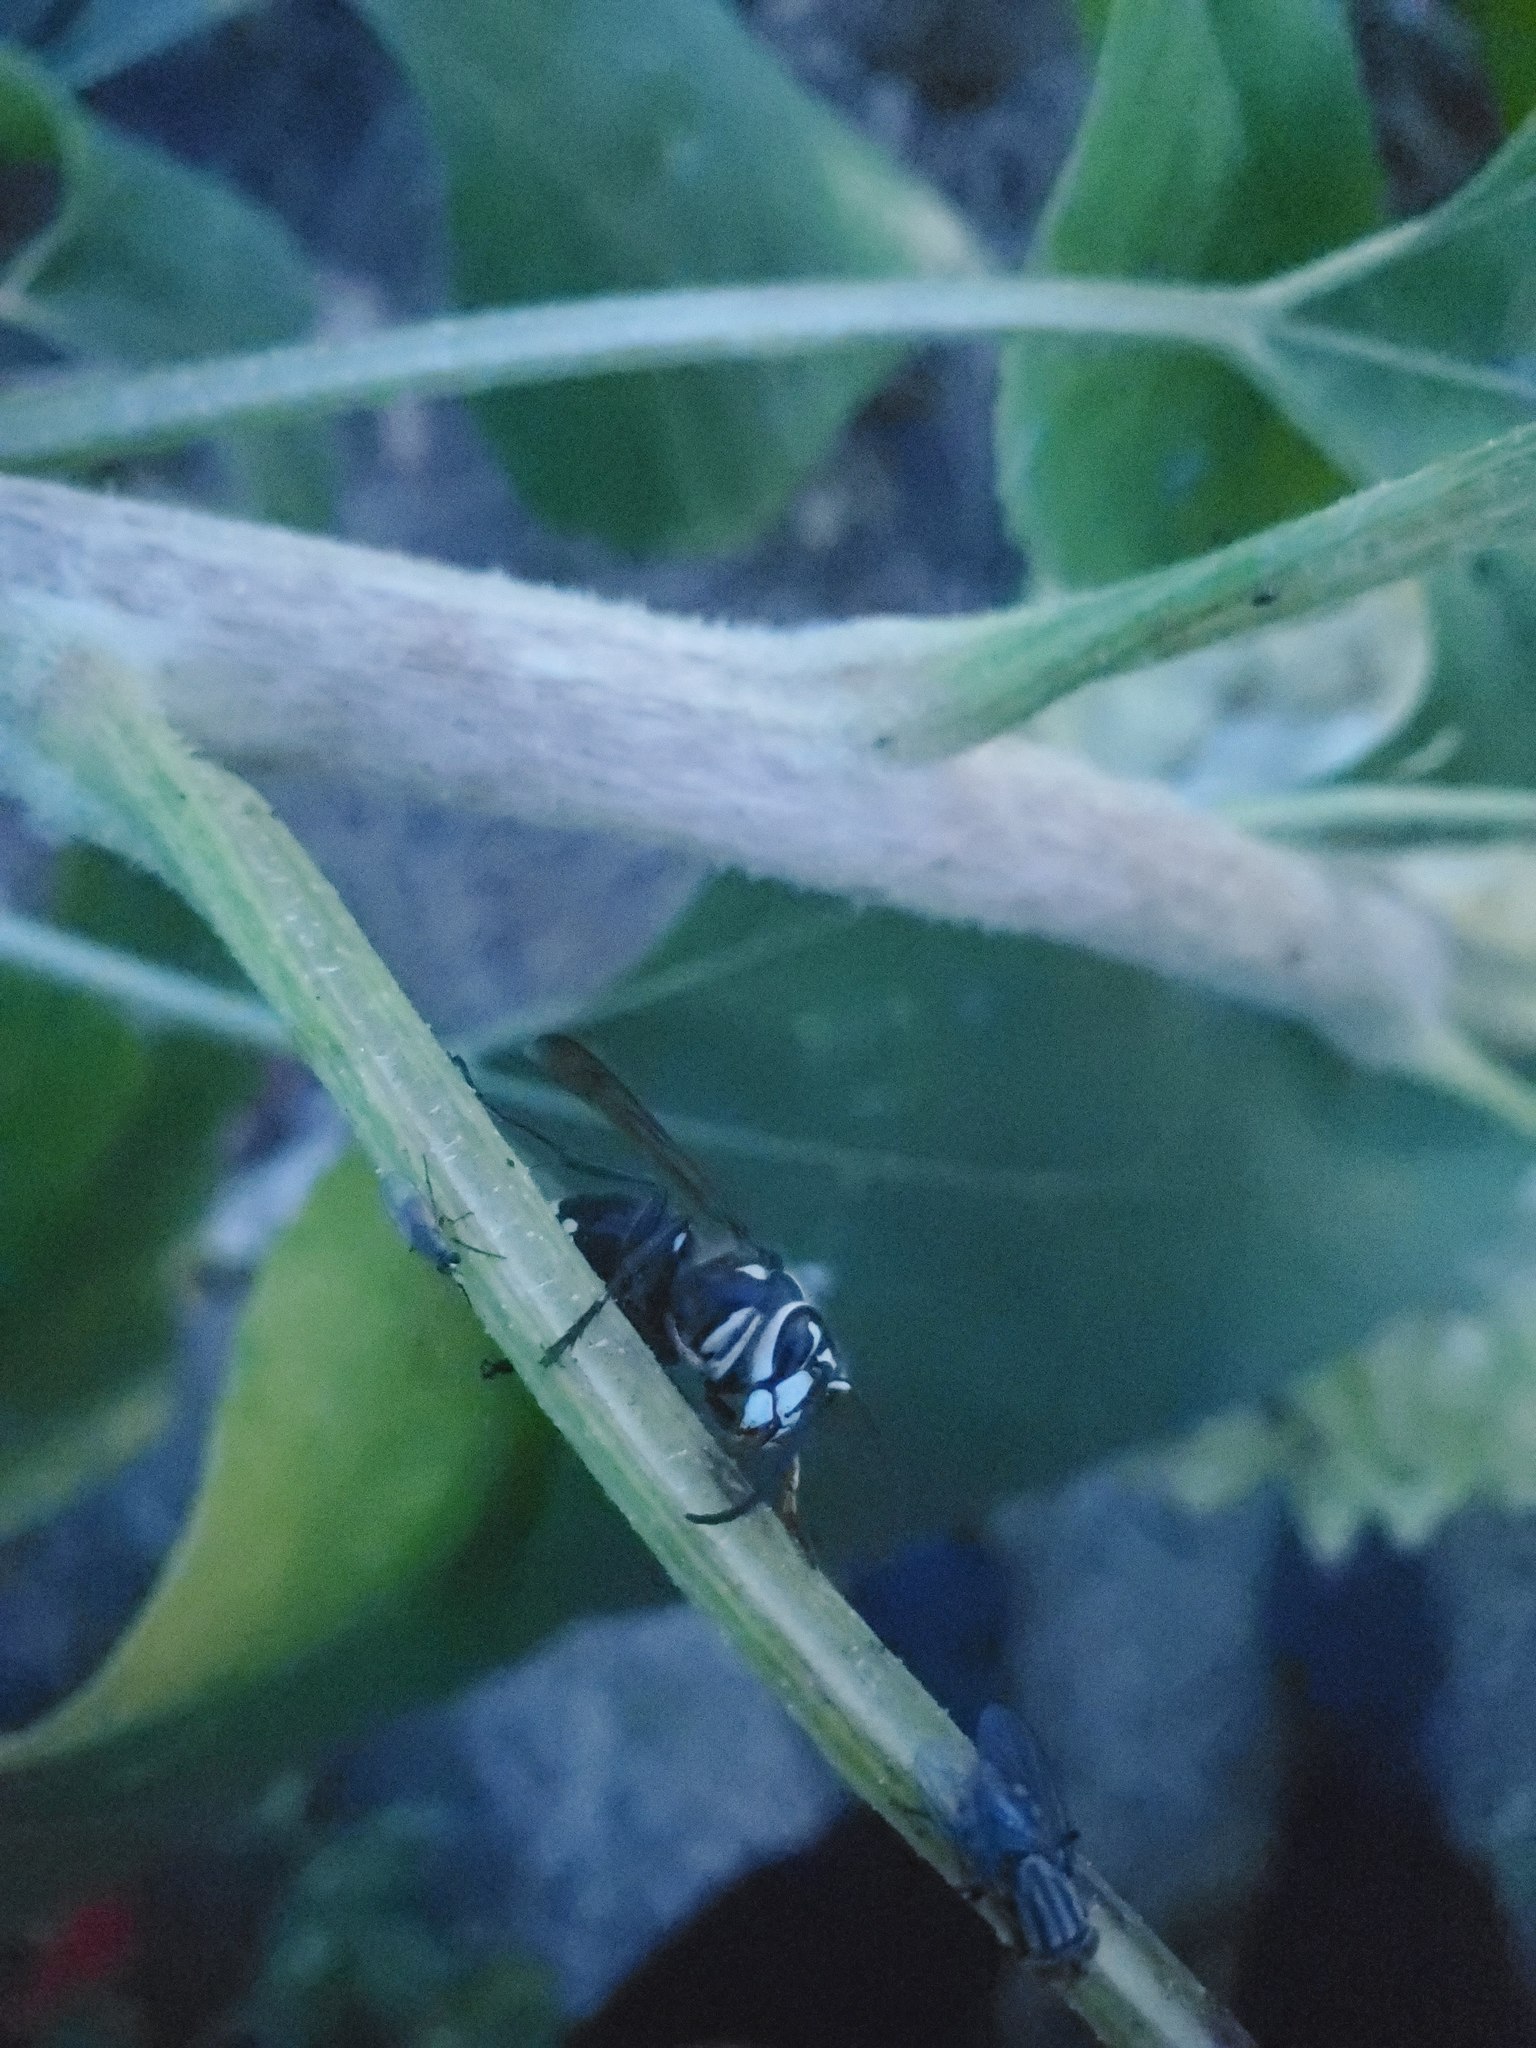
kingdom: Animalia
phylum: Arthropoda
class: Insecta
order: Hymenoptera
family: Vespidae
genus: Dolichovespula
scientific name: Dolichovespula maculata
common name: Bald-faced hornet
